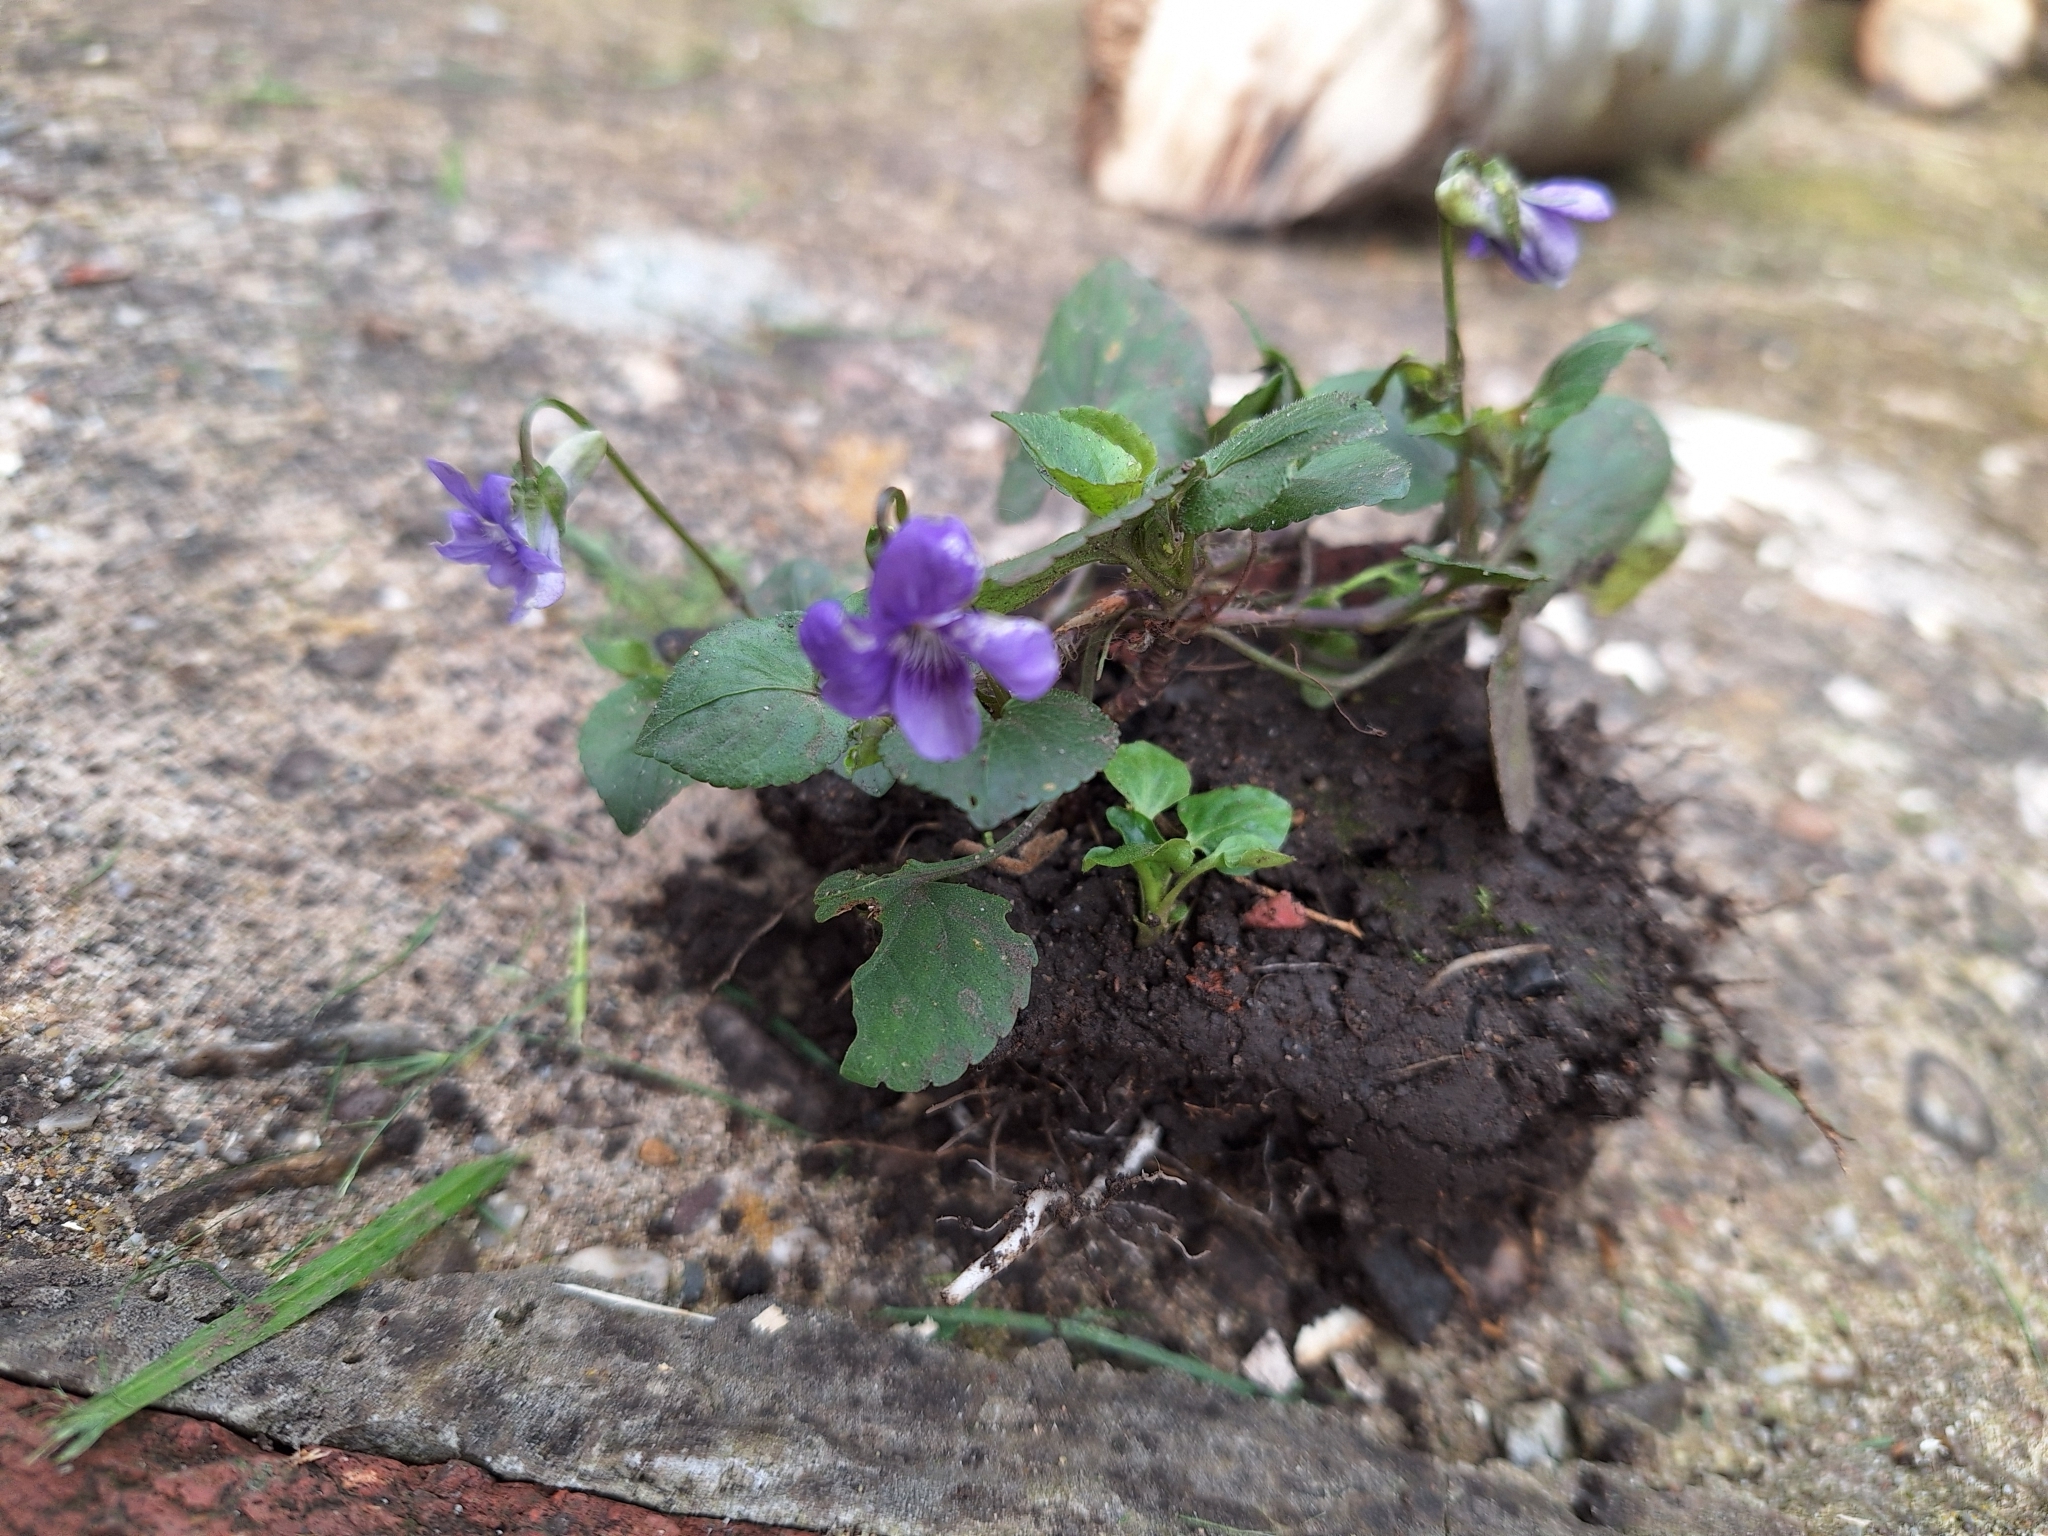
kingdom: Plantae
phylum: Tracheophyta
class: Magnoliopsida
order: Malpighiales
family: Violaceae
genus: Viola
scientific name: Viola riviniana
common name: Common dog-violet
